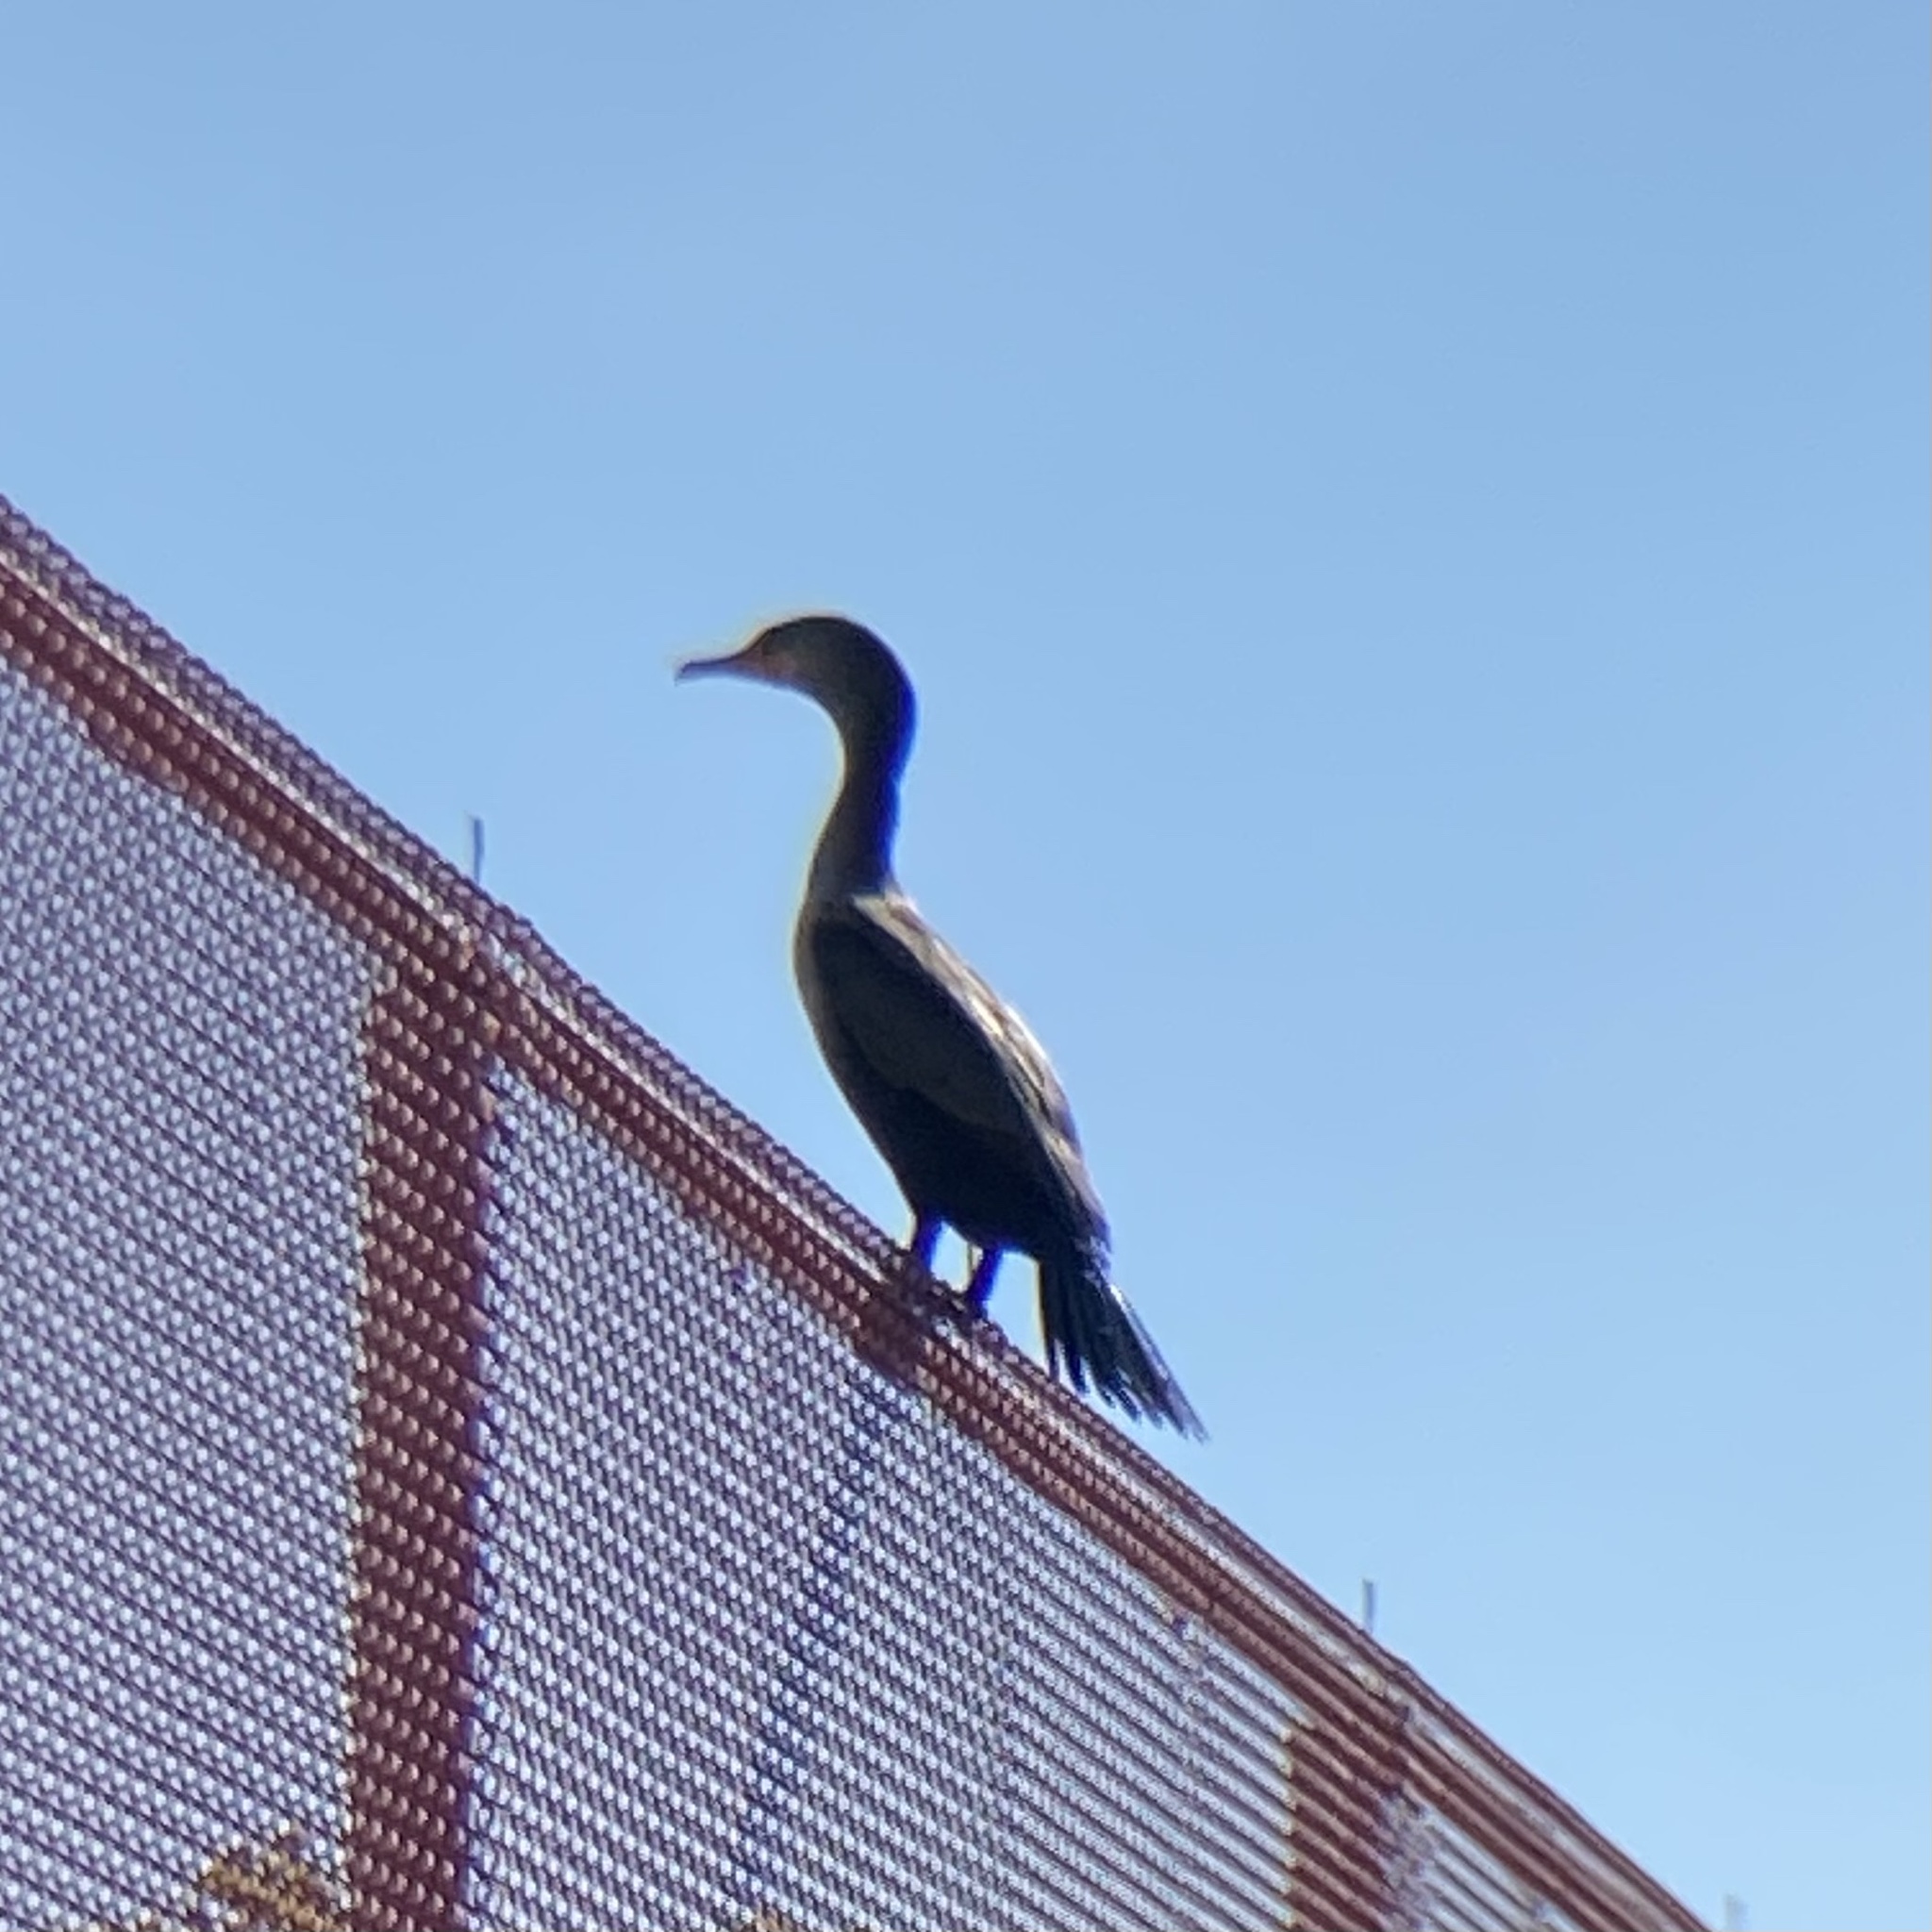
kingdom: Animalia
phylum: Chordata
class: Aves
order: Suliformes
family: Phalacrocoracidae
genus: Phalacrocorax
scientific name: Phalacrocorax auritus
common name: Double-crested cormorant
